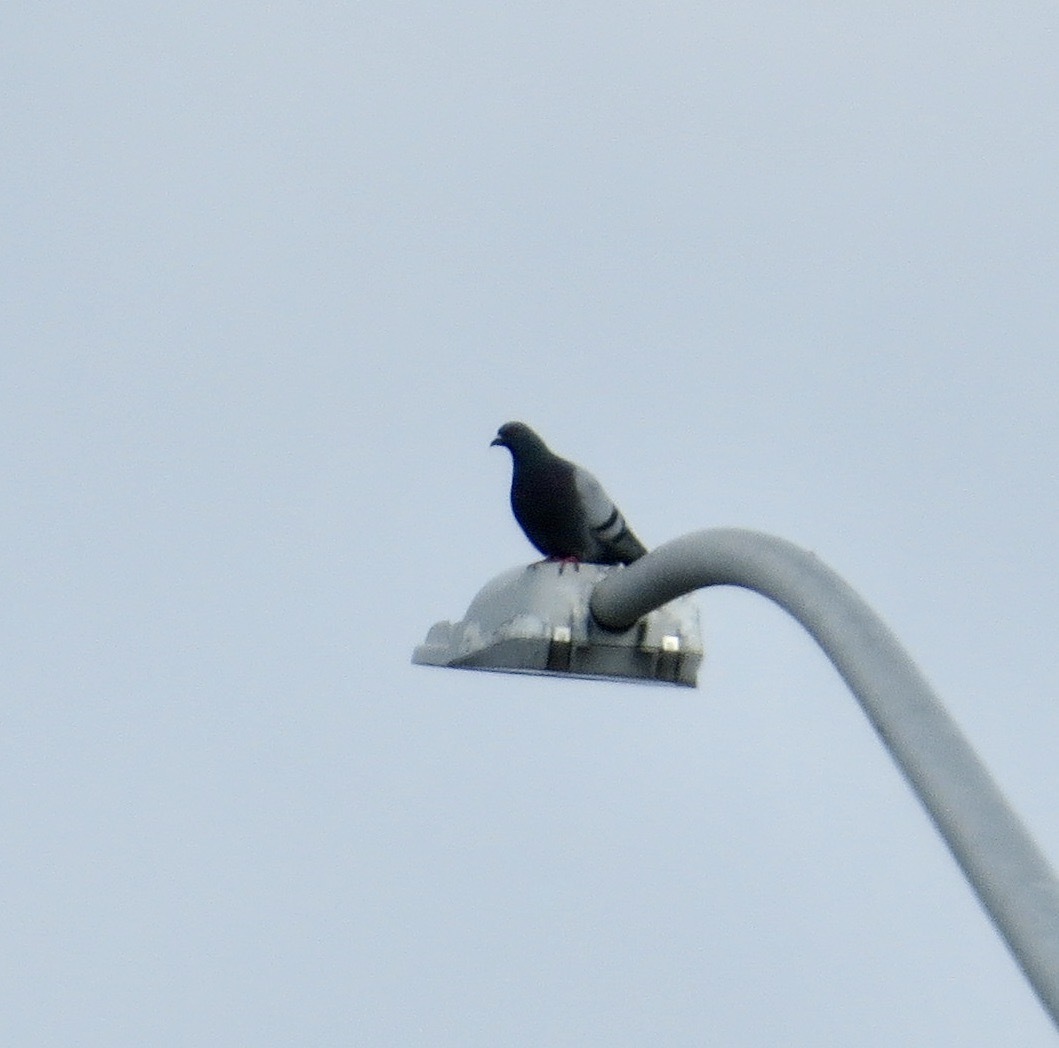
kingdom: Animalia
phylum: Chordata
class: Aves
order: Columbiformes
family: Columbidae
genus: Columba
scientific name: Columba livia
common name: Rock pigeon
